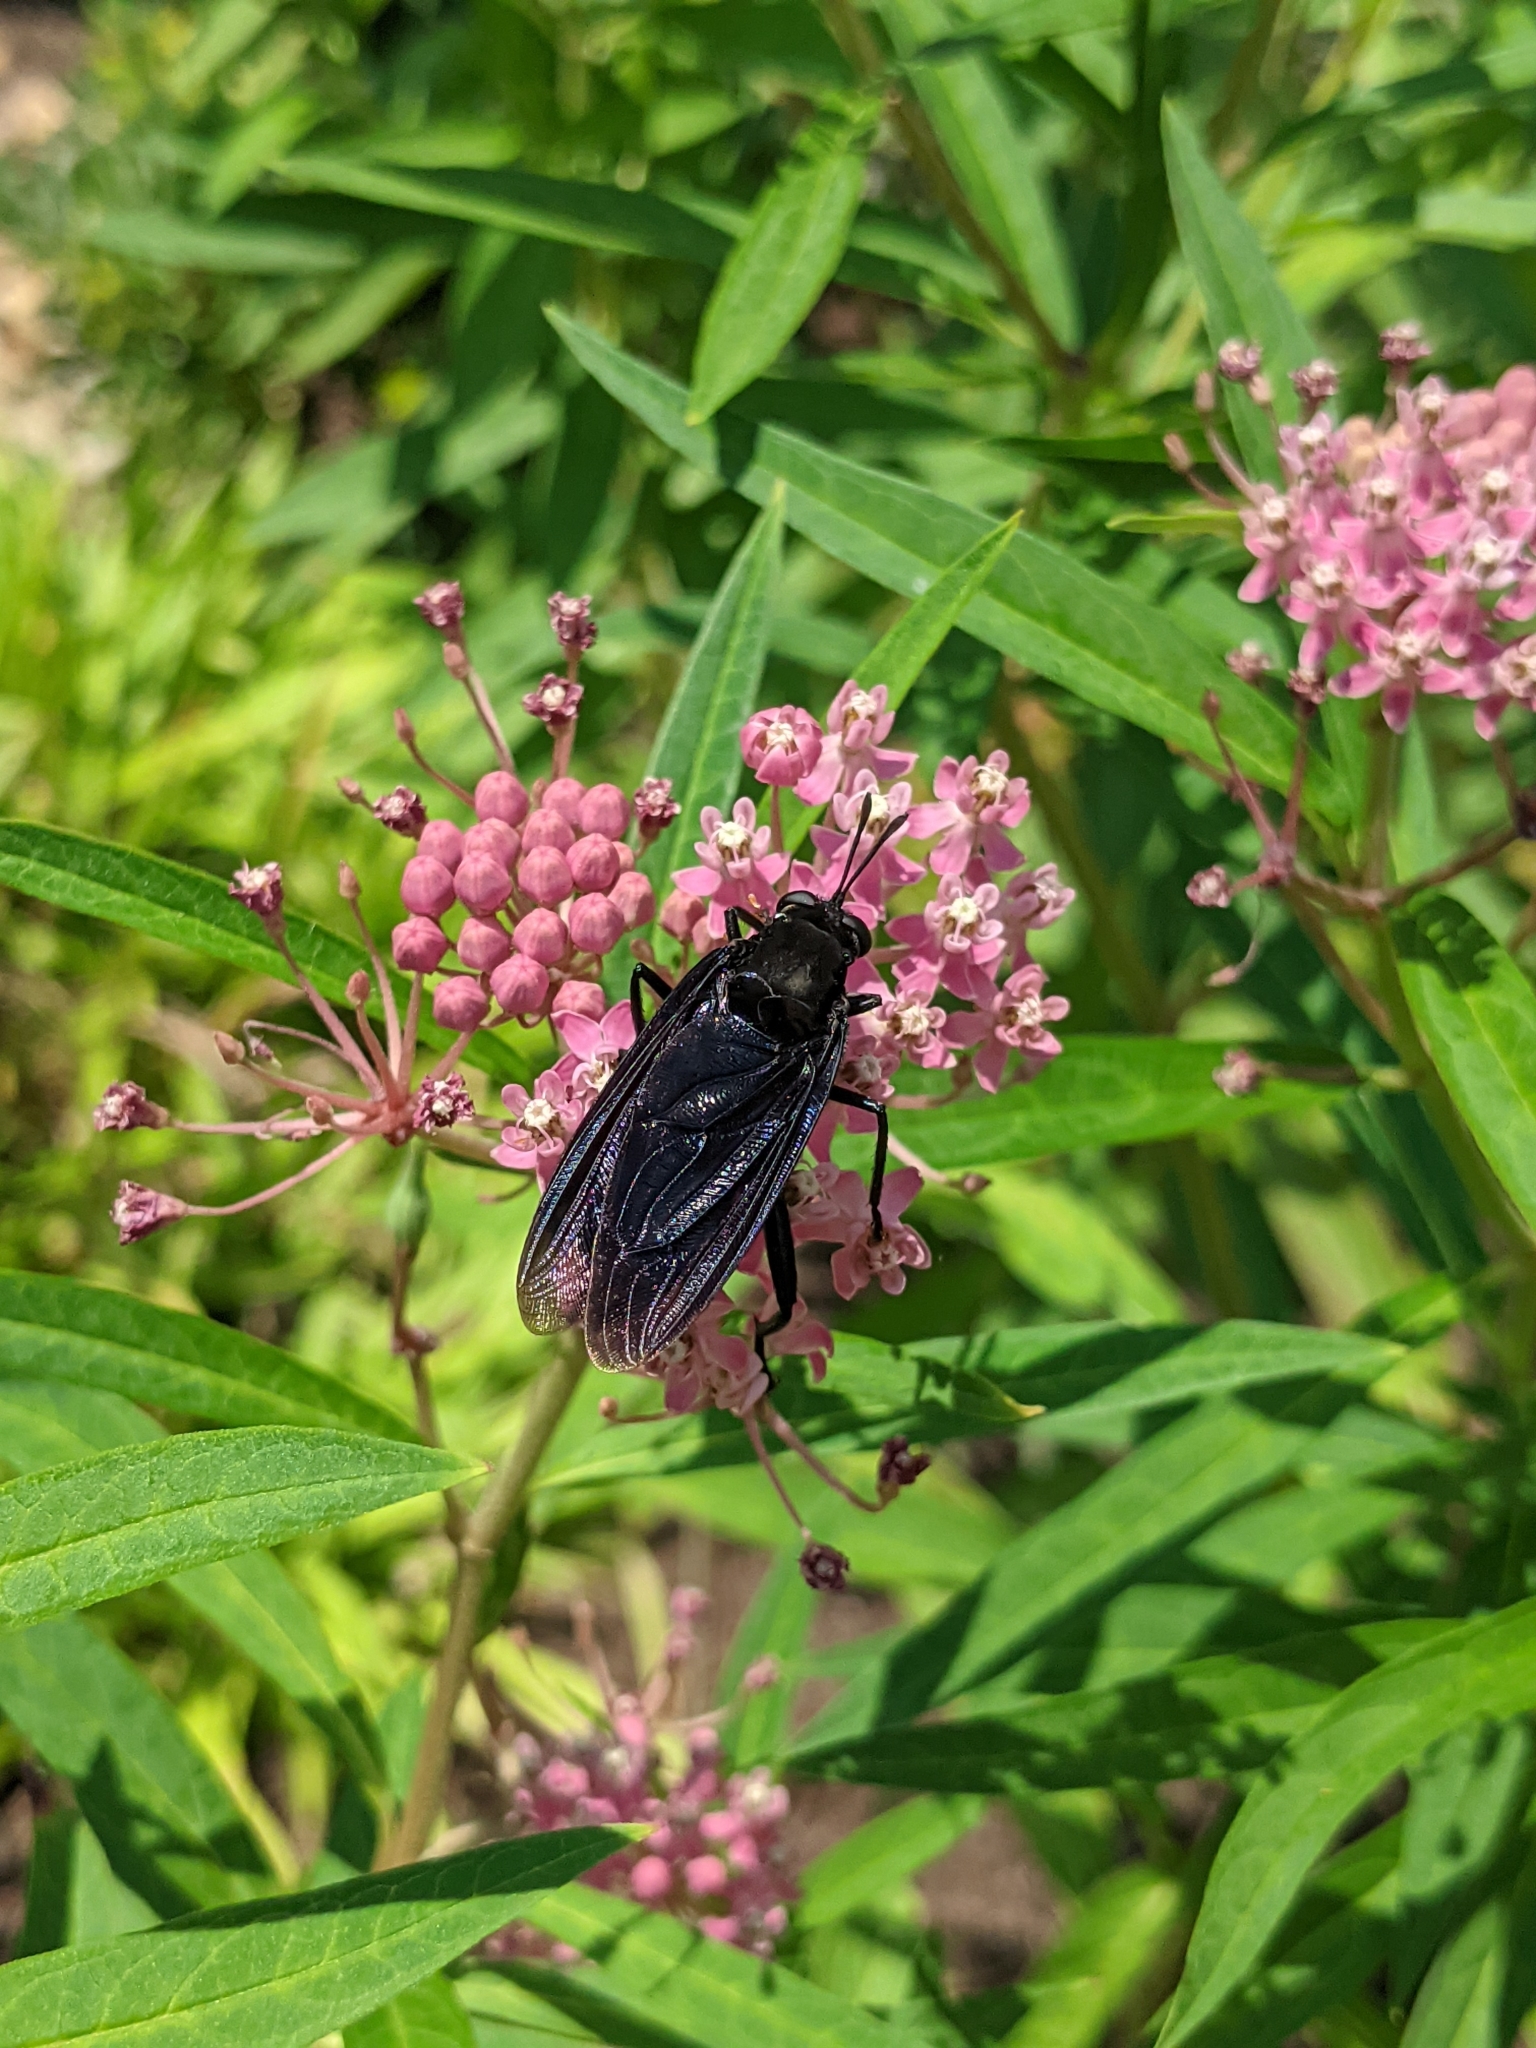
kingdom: Animalia
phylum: Arthropoda
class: Insecta
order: Diptera
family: Mydidae
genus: Mydas
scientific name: Mydas clavatus
